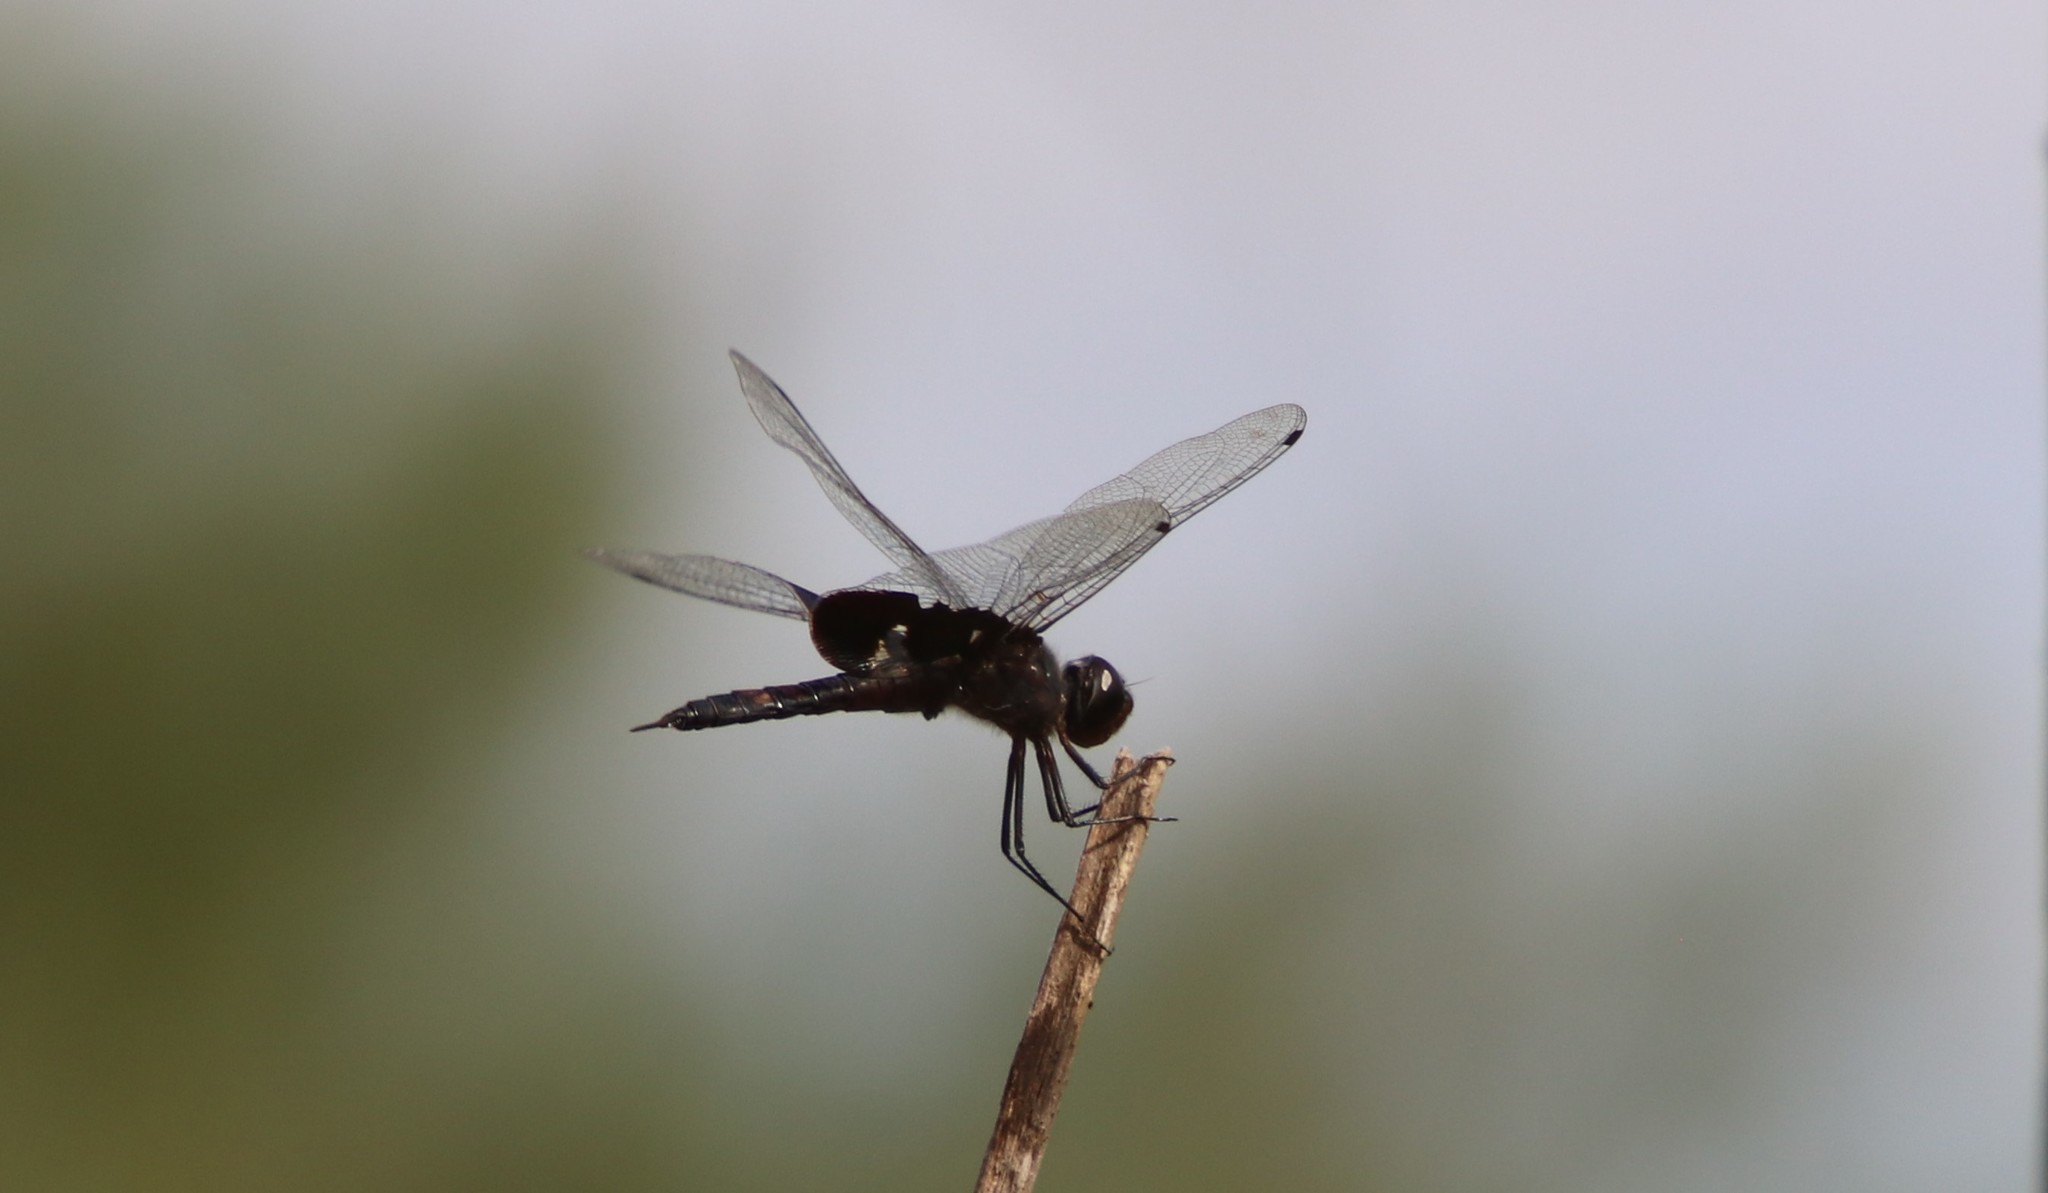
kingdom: Animalia
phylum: Arthropoda
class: Insecta
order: Odonata
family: Libellulidae
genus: Tramea
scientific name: Tramea lacerata
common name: Black saddlebags
